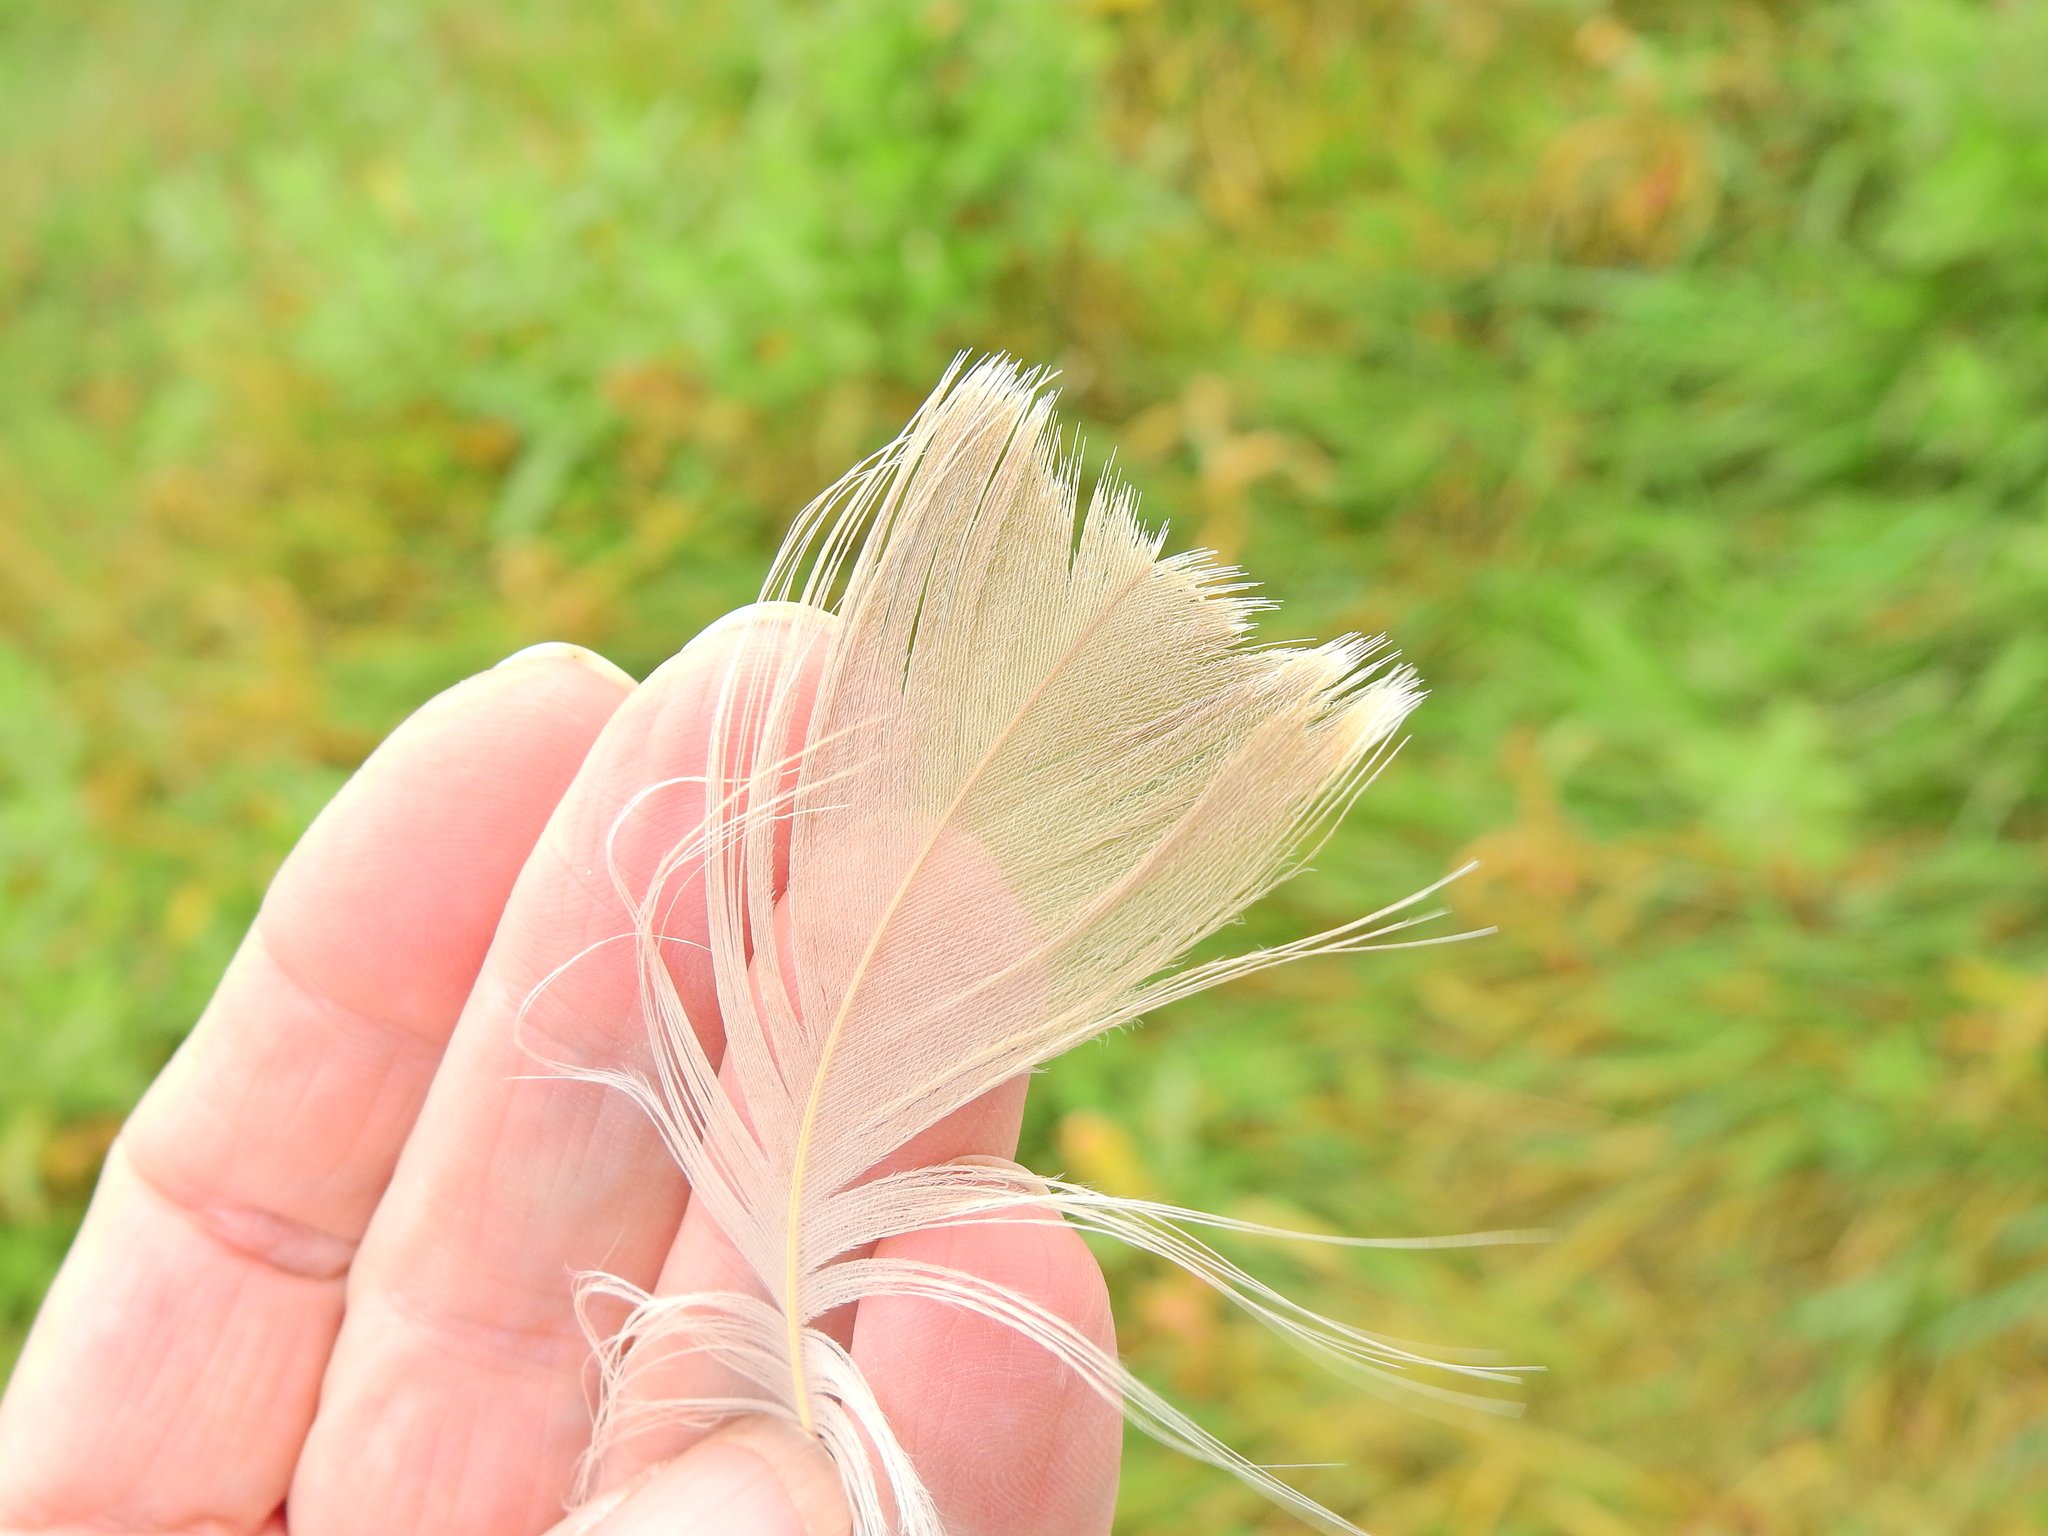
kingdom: Animalia
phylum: Chordata
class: Aves
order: Anseriformes
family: Anatidae
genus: Branta
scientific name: Branta canadensis
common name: Canada goose
